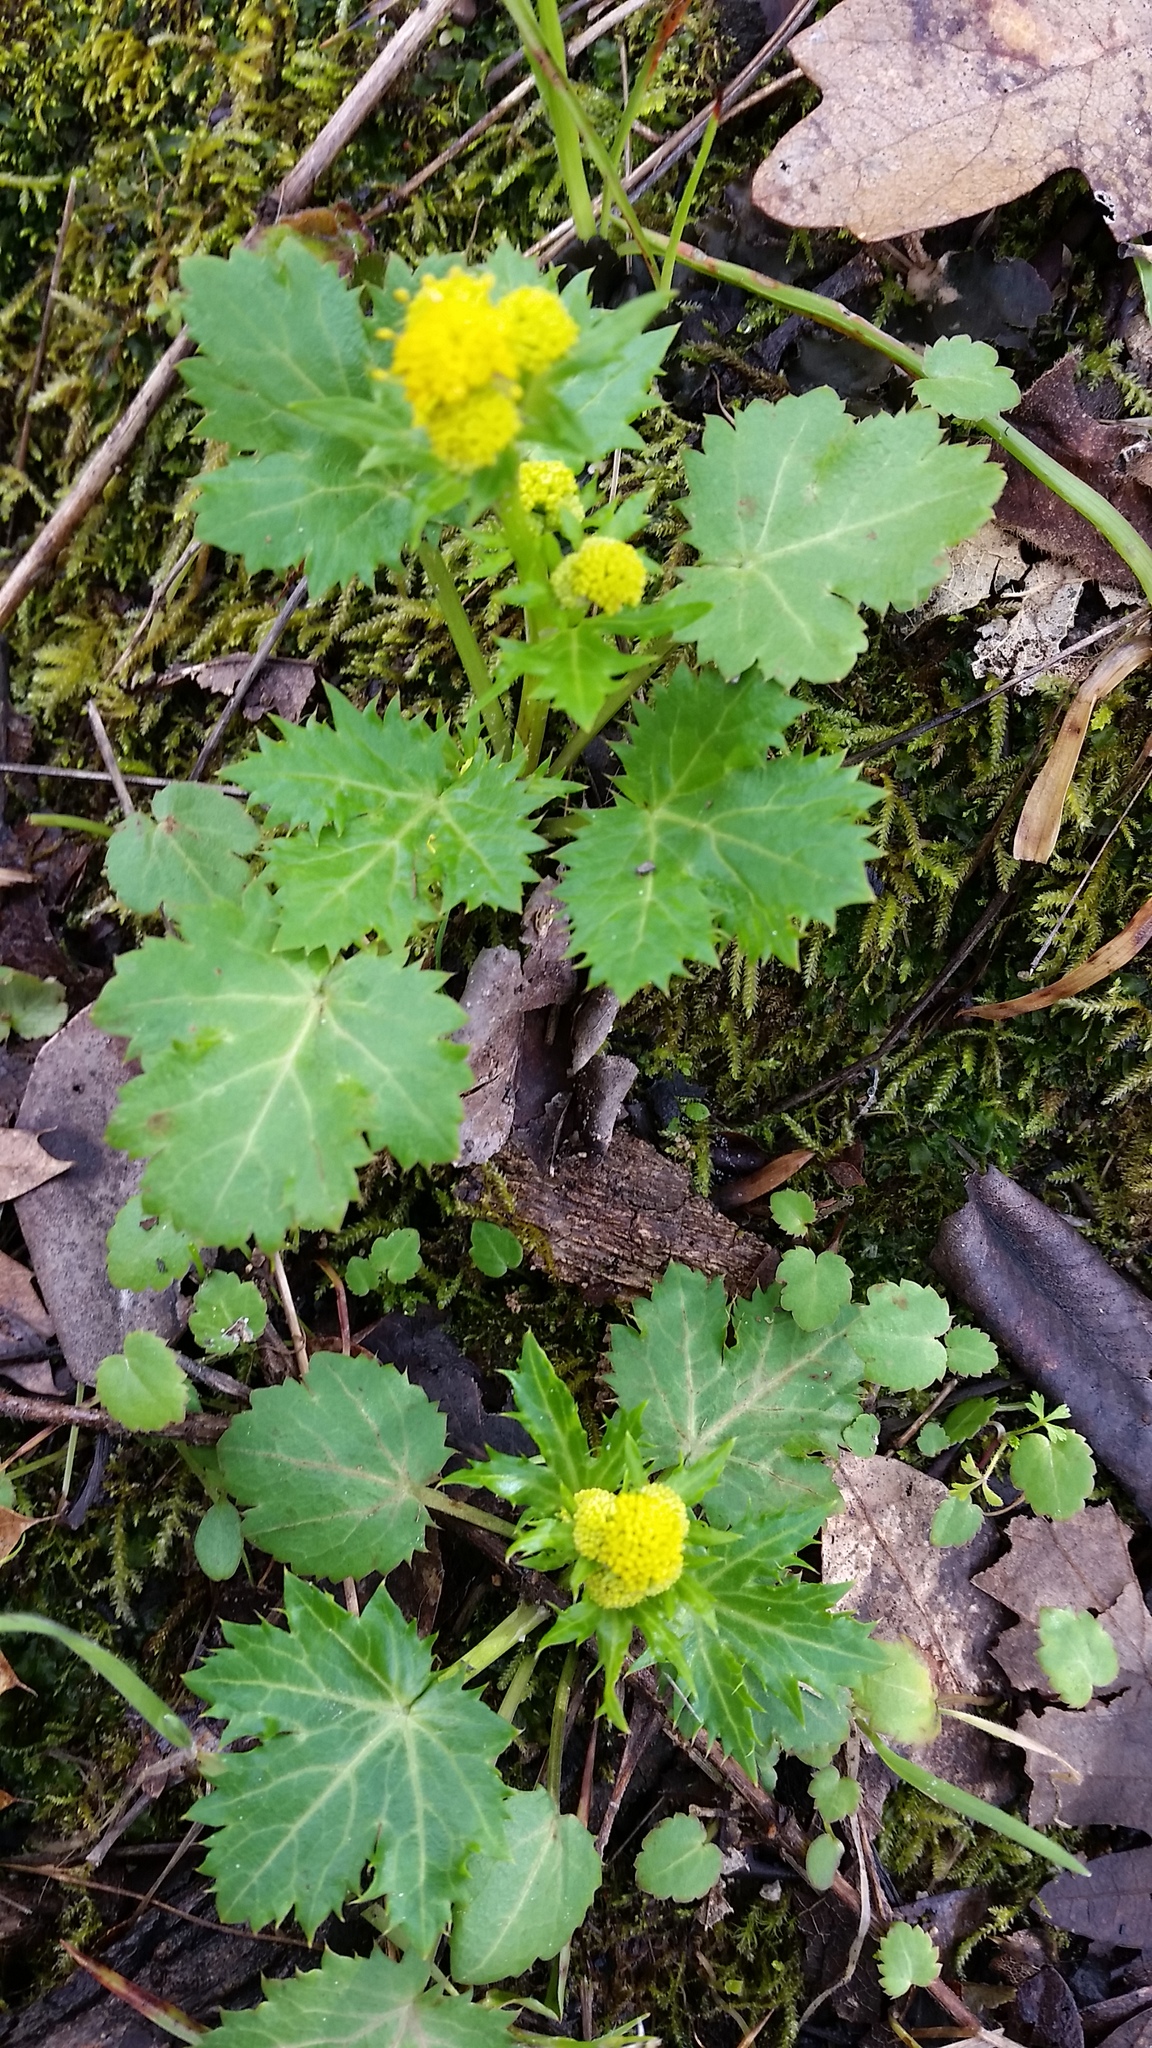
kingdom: Plantae
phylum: Tracheophyta
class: Magnoliopsida
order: Apiales
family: Apiaceae
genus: Sanicula
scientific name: Sanicula crassicaulis
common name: Western snakeroot
